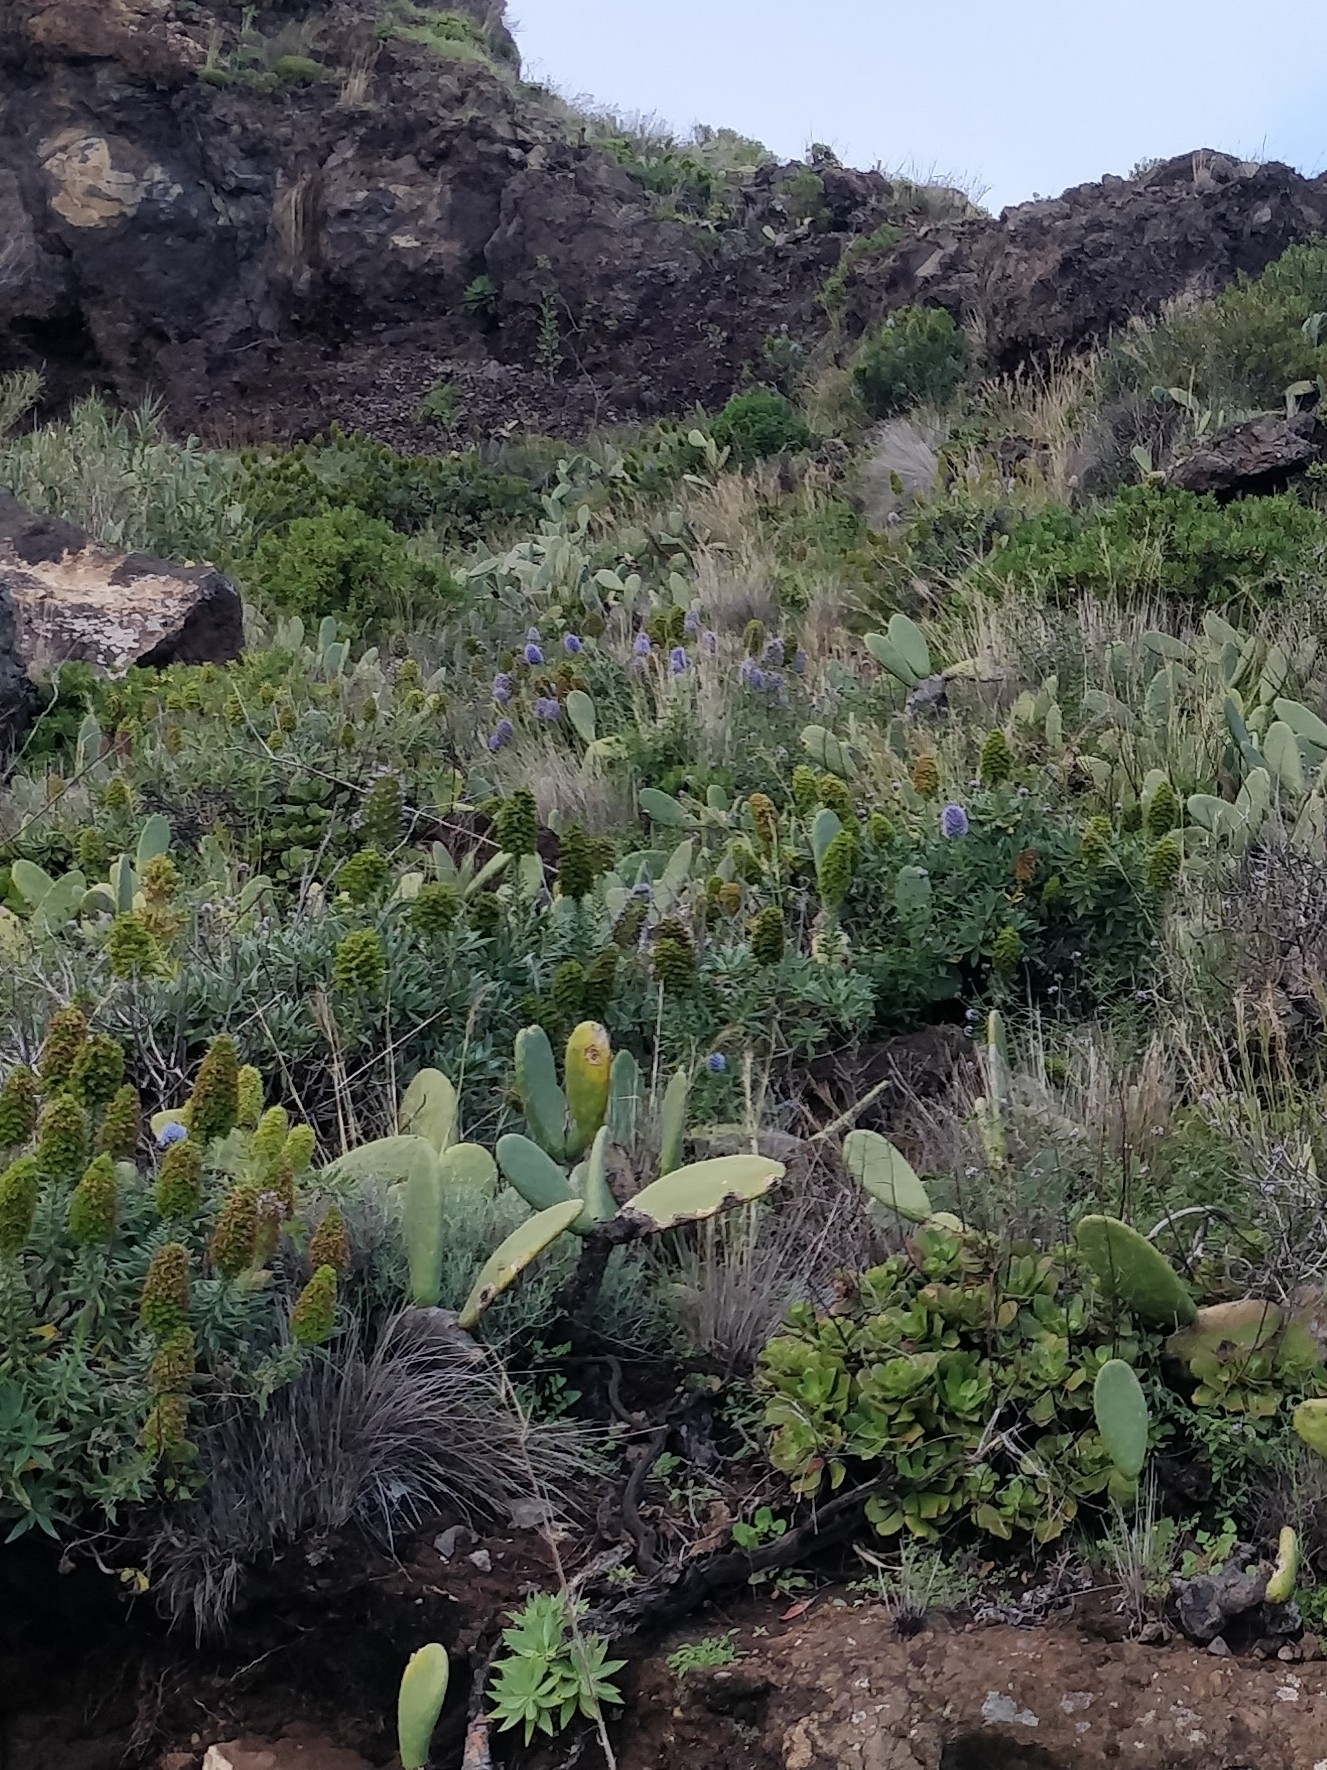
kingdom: Plantae
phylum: Tracheophyta
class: Magnoliopsida
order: Boraginales
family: Boraginaceae
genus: Echium
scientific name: Echium nervosum
